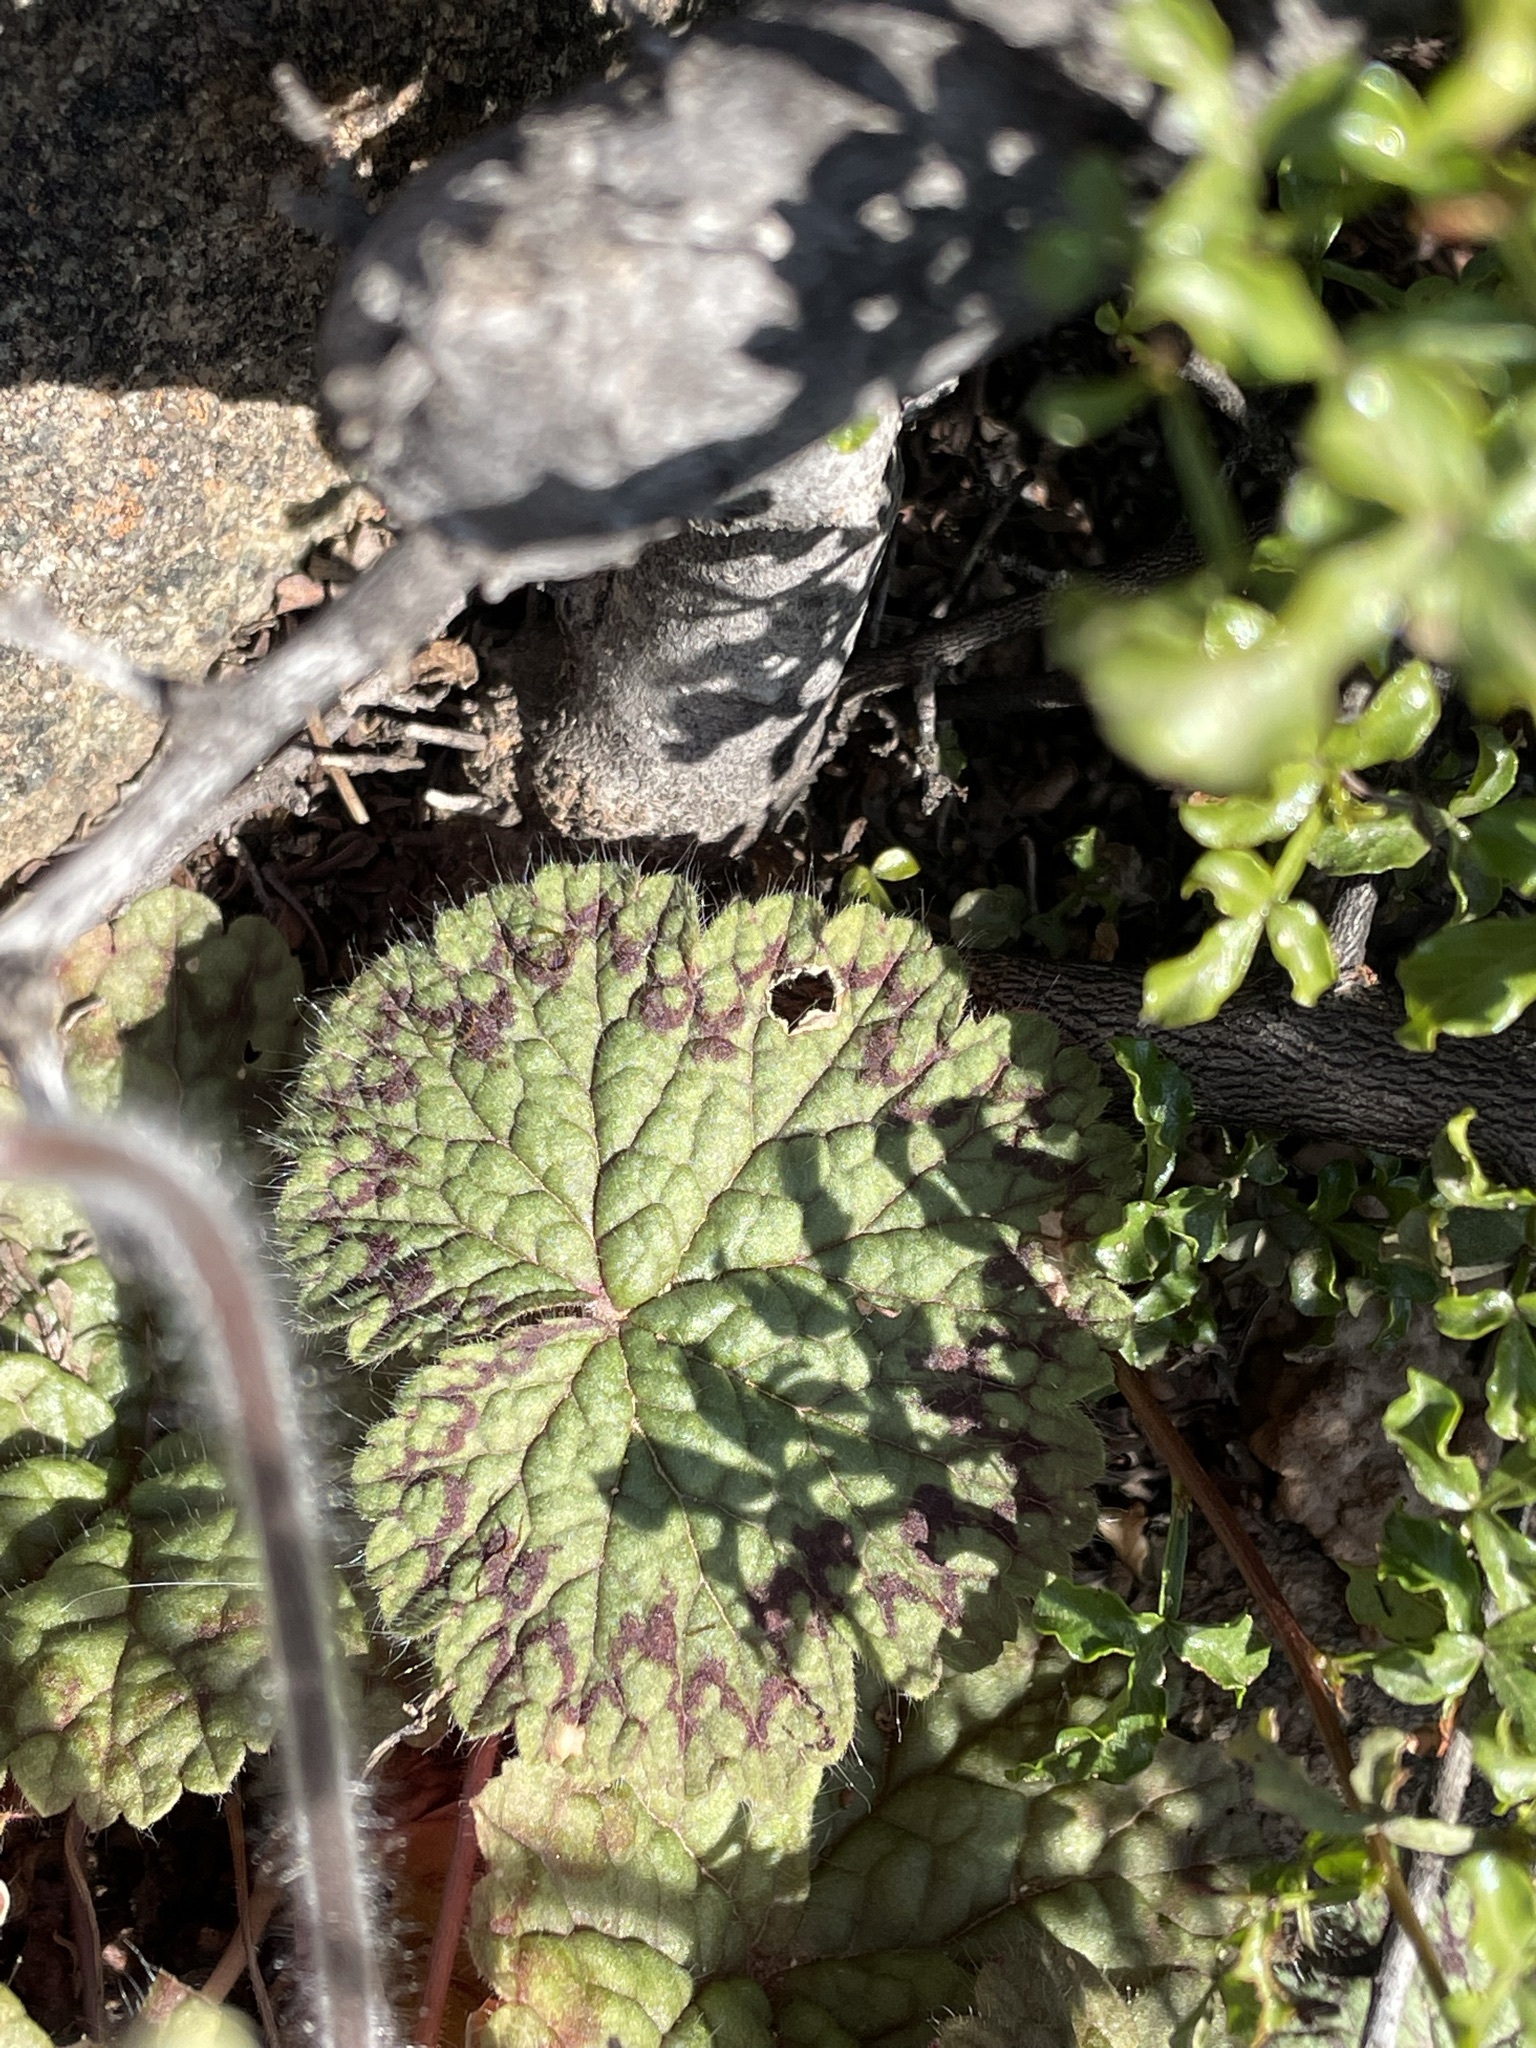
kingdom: Plantae
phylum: Tracheophyta
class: Magnoliopsida
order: Geraniales
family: Geraniaceae
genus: Pelargonium
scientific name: Pelargonium barklyi
